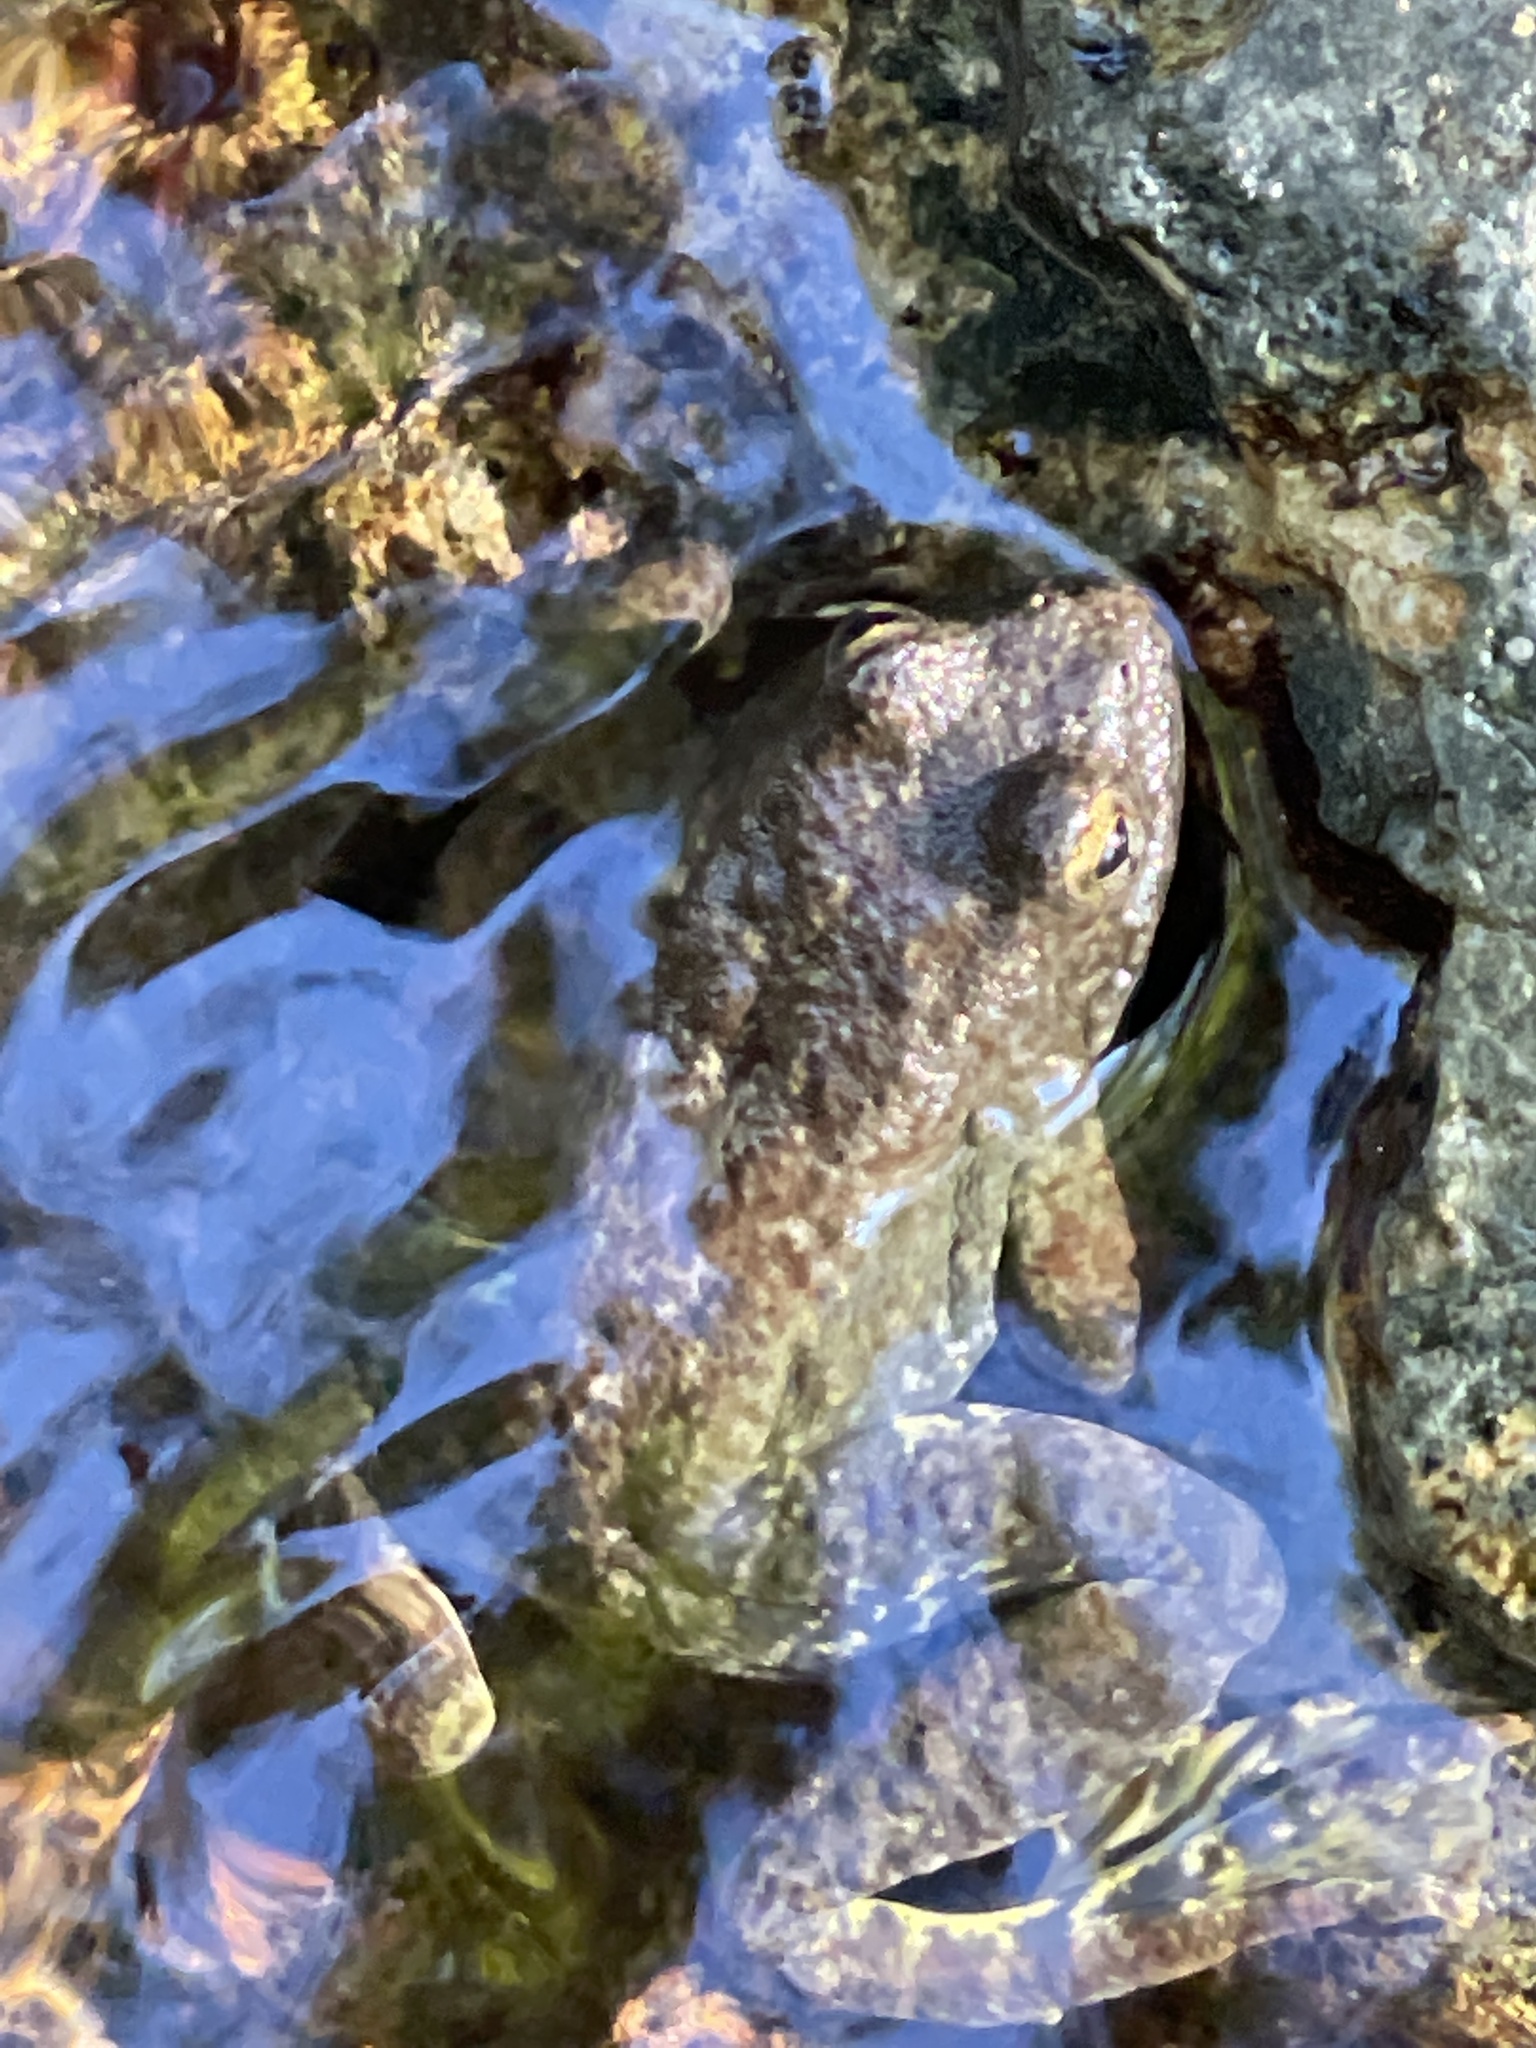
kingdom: Animalia
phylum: Chordata
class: Amphibia
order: Anura
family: Ranidae
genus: Rana
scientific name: Rana boylii
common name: Foothill yellow-legged frog
